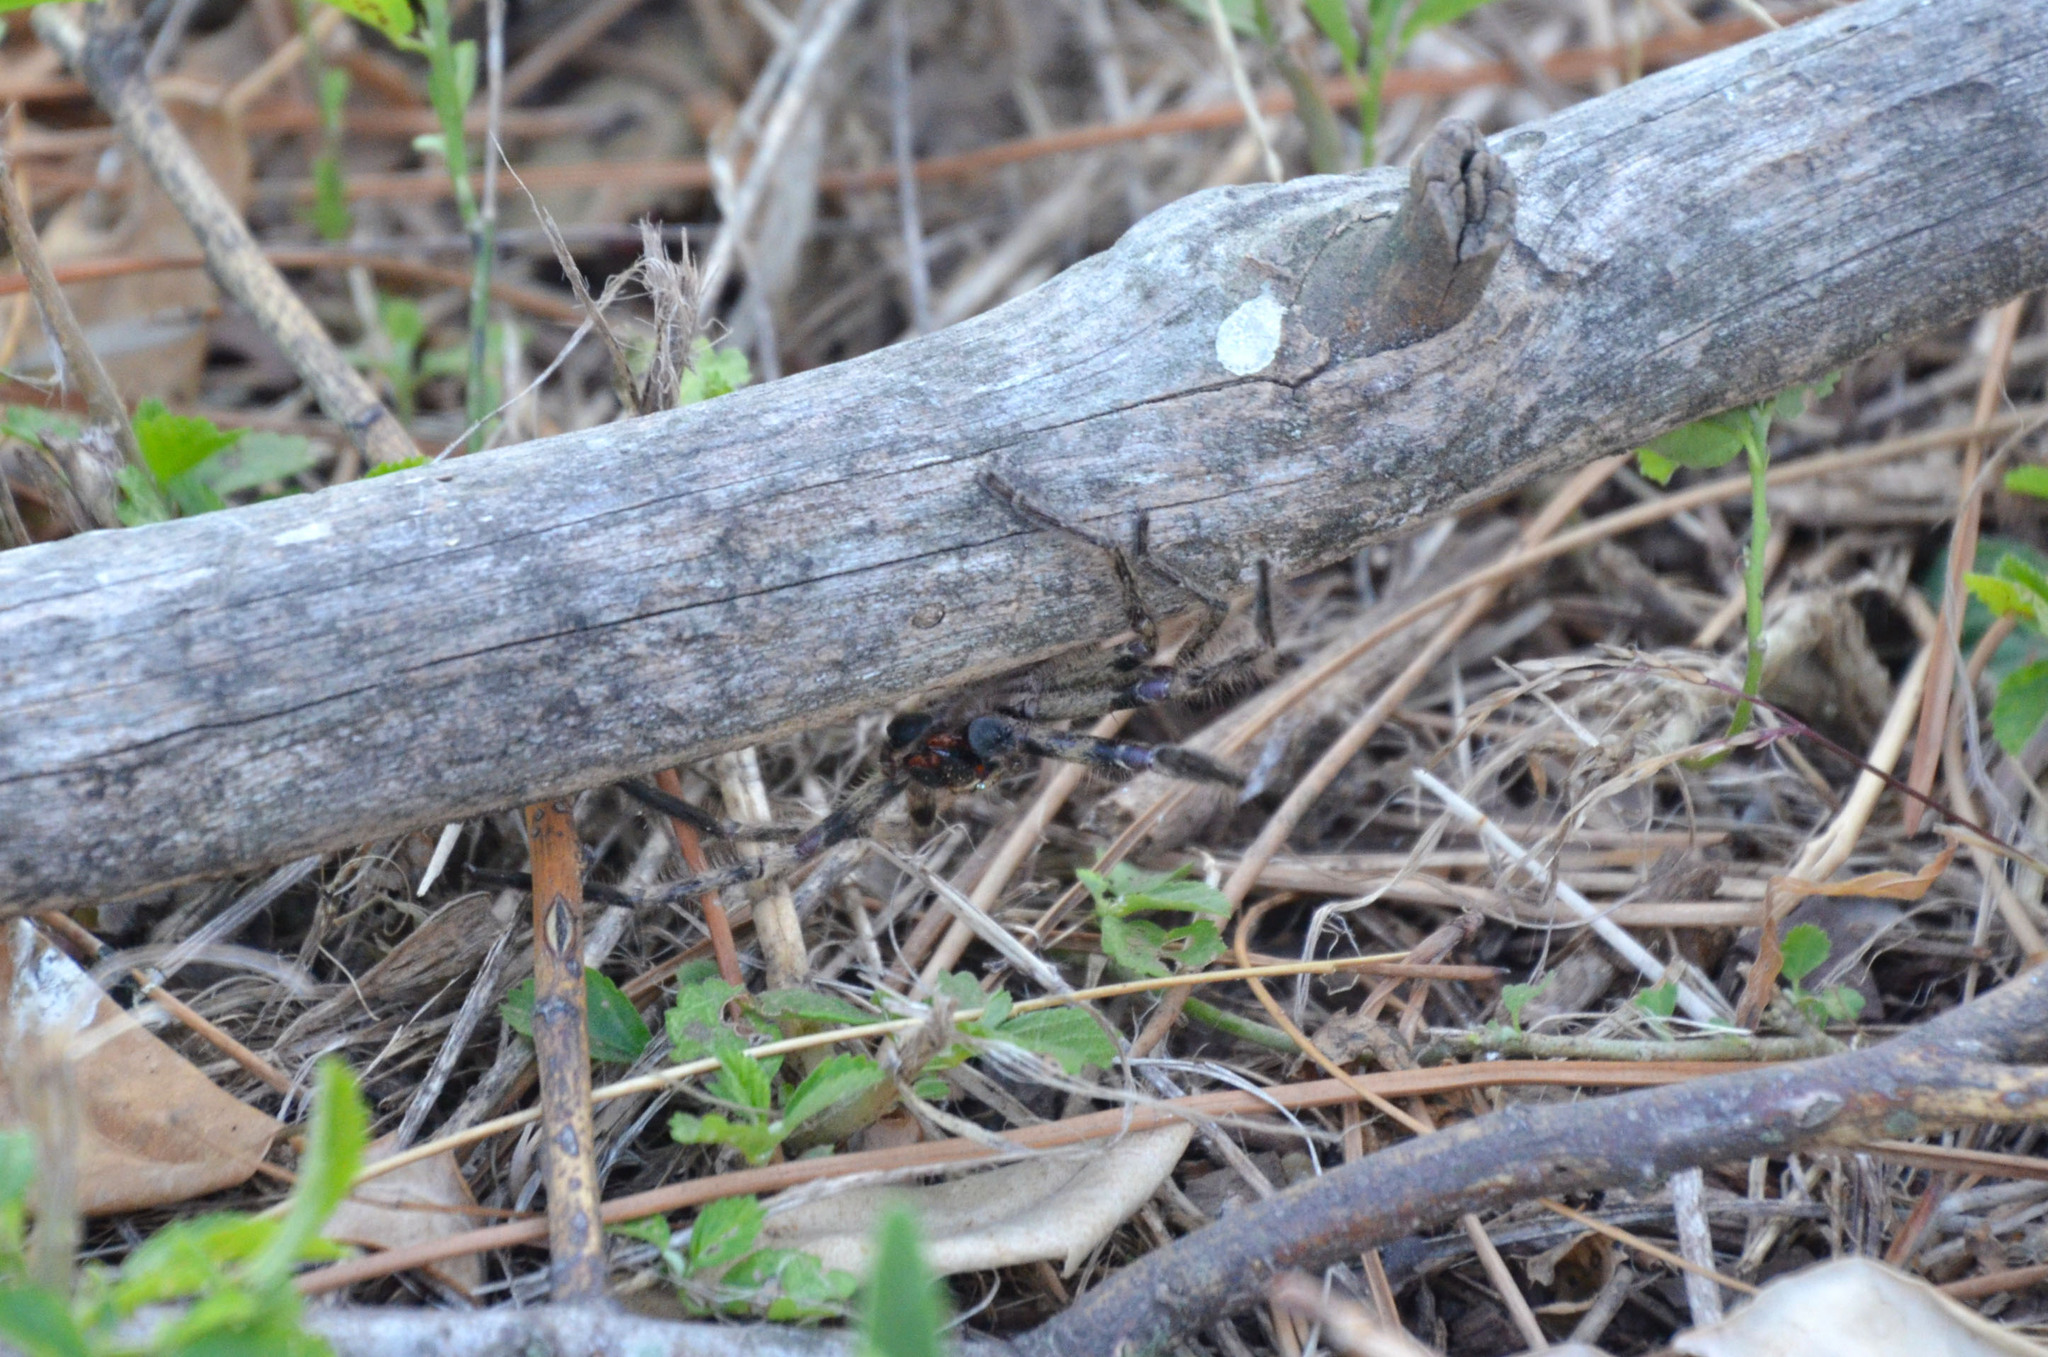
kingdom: Animalia
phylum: Arthropoda
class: Arachnida
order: Araneae
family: Sparassidae
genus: Polybetes
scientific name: Polybetes pythagoricus
